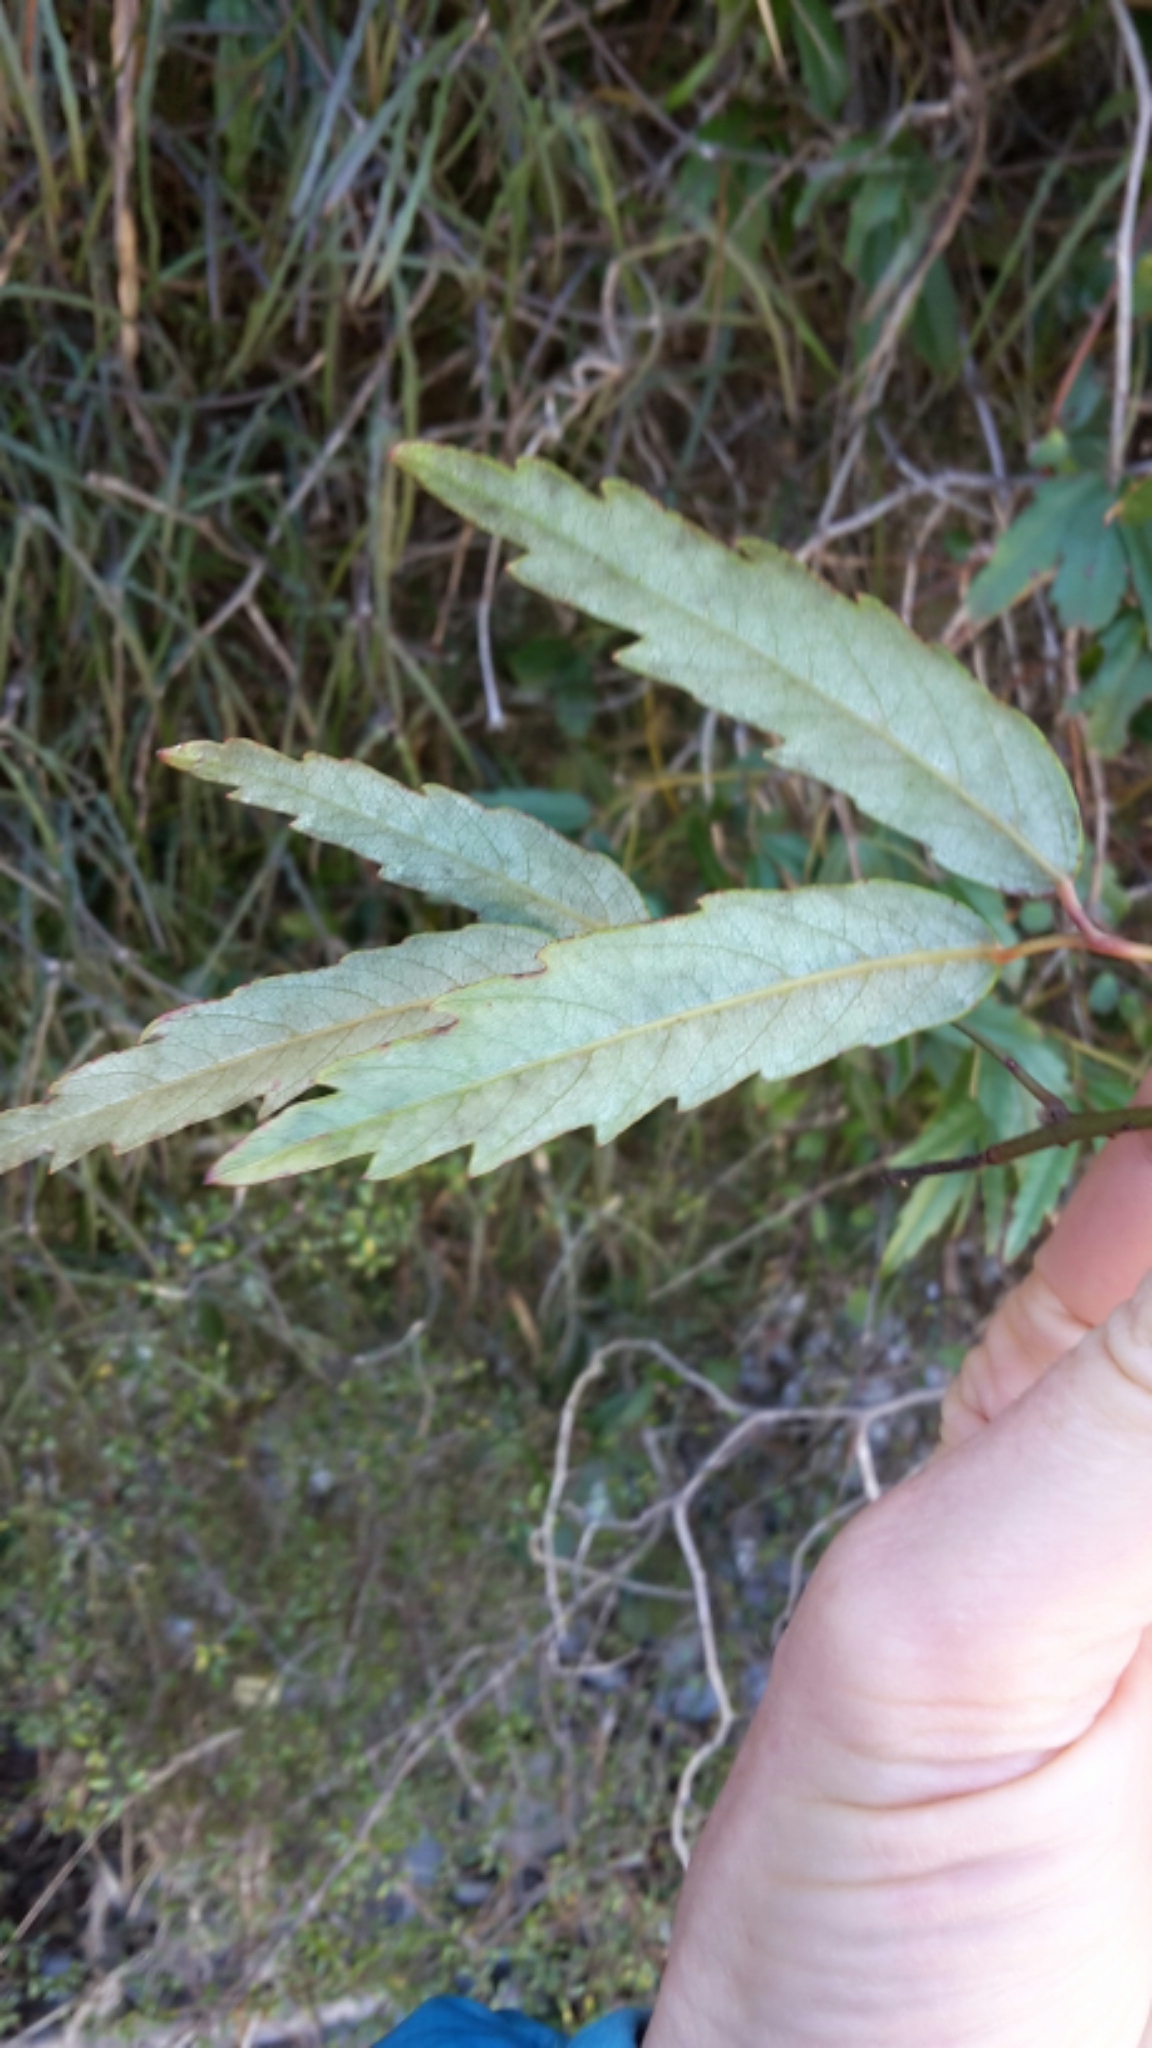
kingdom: Plantae
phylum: Tracheophyta
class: Magnoliopsida
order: Rosales
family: Rosaceae
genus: Rubus
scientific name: Rubus schmidelioides
